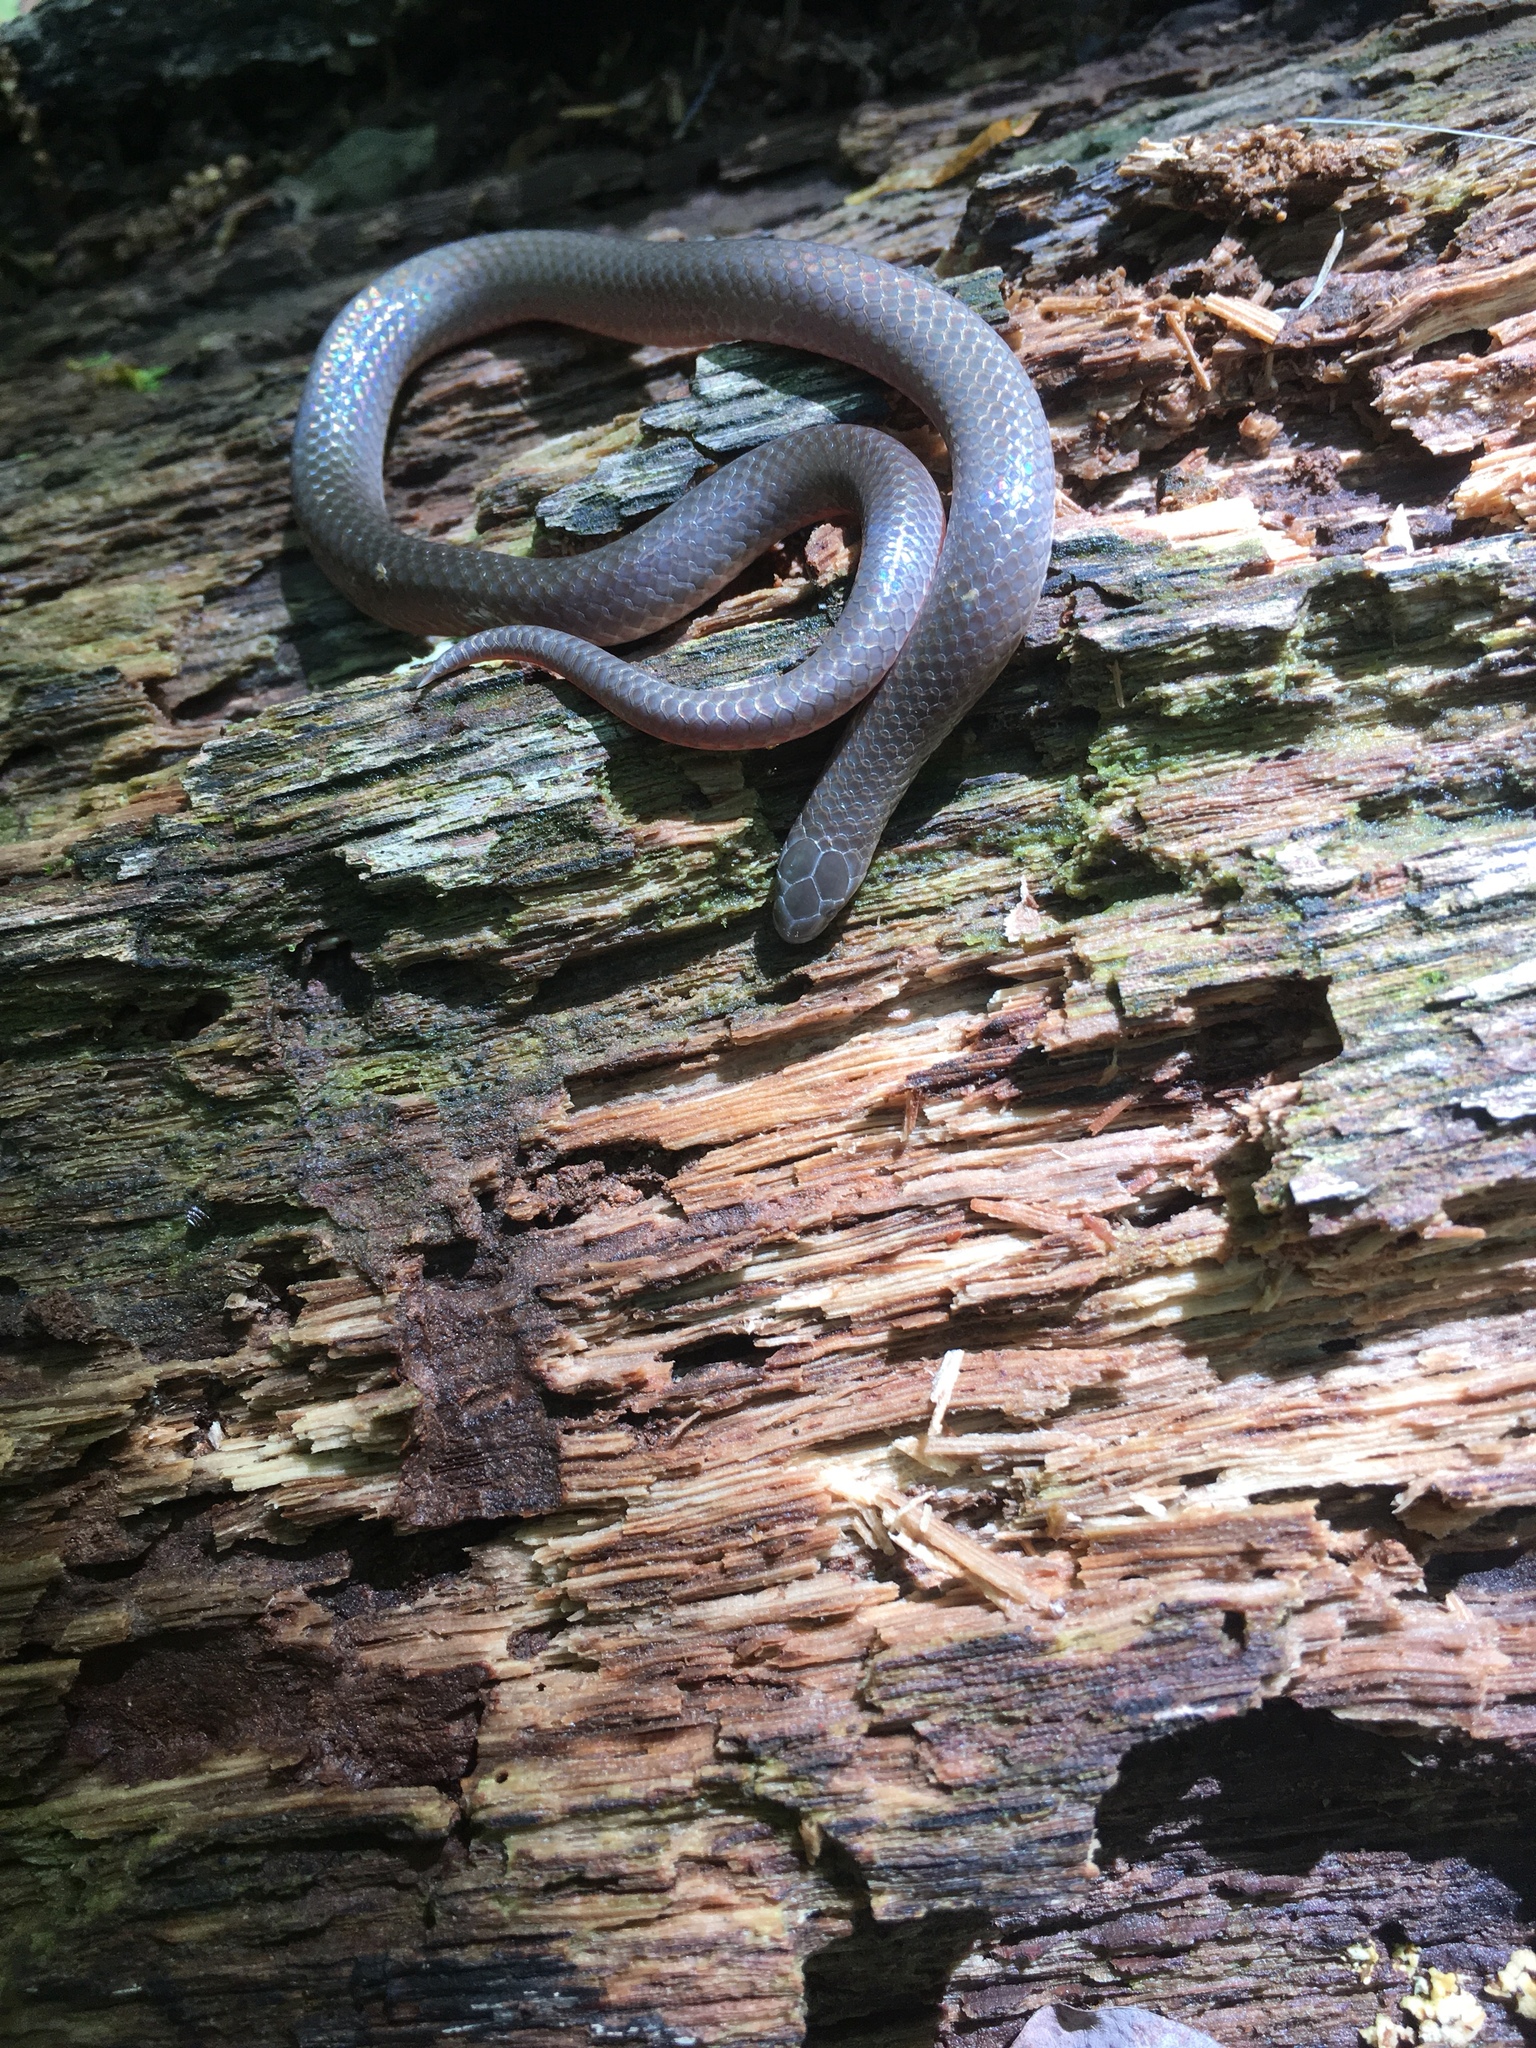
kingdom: Animalia
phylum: Chordata
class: Squamata
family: Colubridae
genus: Carphophis
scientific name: Carphophis amoenus
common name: Eastern worm snake
